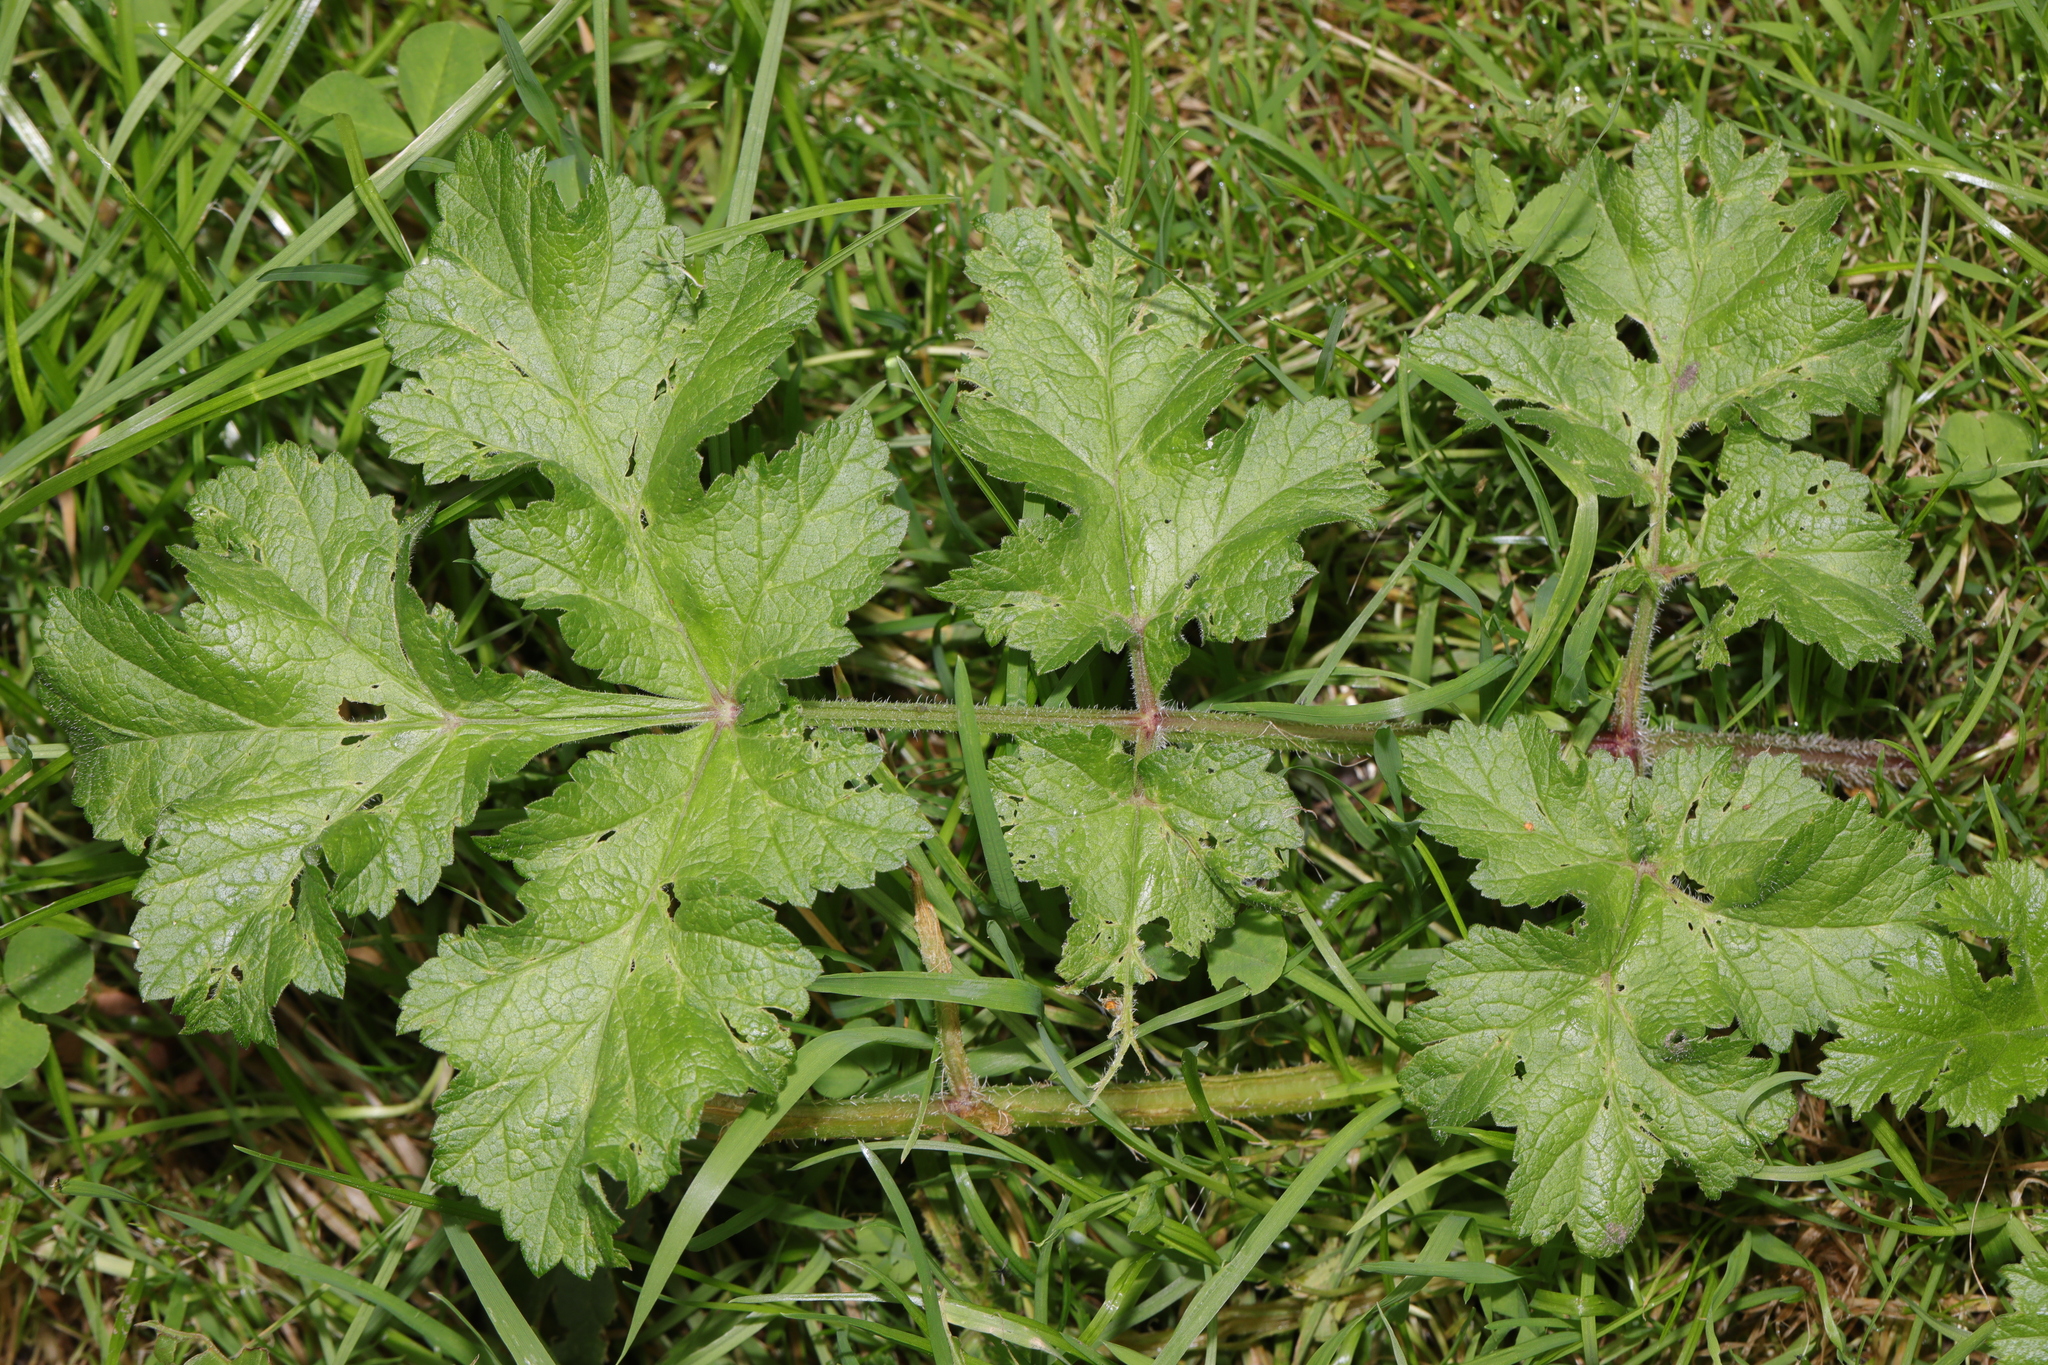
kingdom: Plantae
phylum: Tracheophyta
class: Magnoliopsida
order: Apiales
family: Apiaceae
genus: Heracleum
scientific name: Heracleum sphondylium
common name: Hogweed
